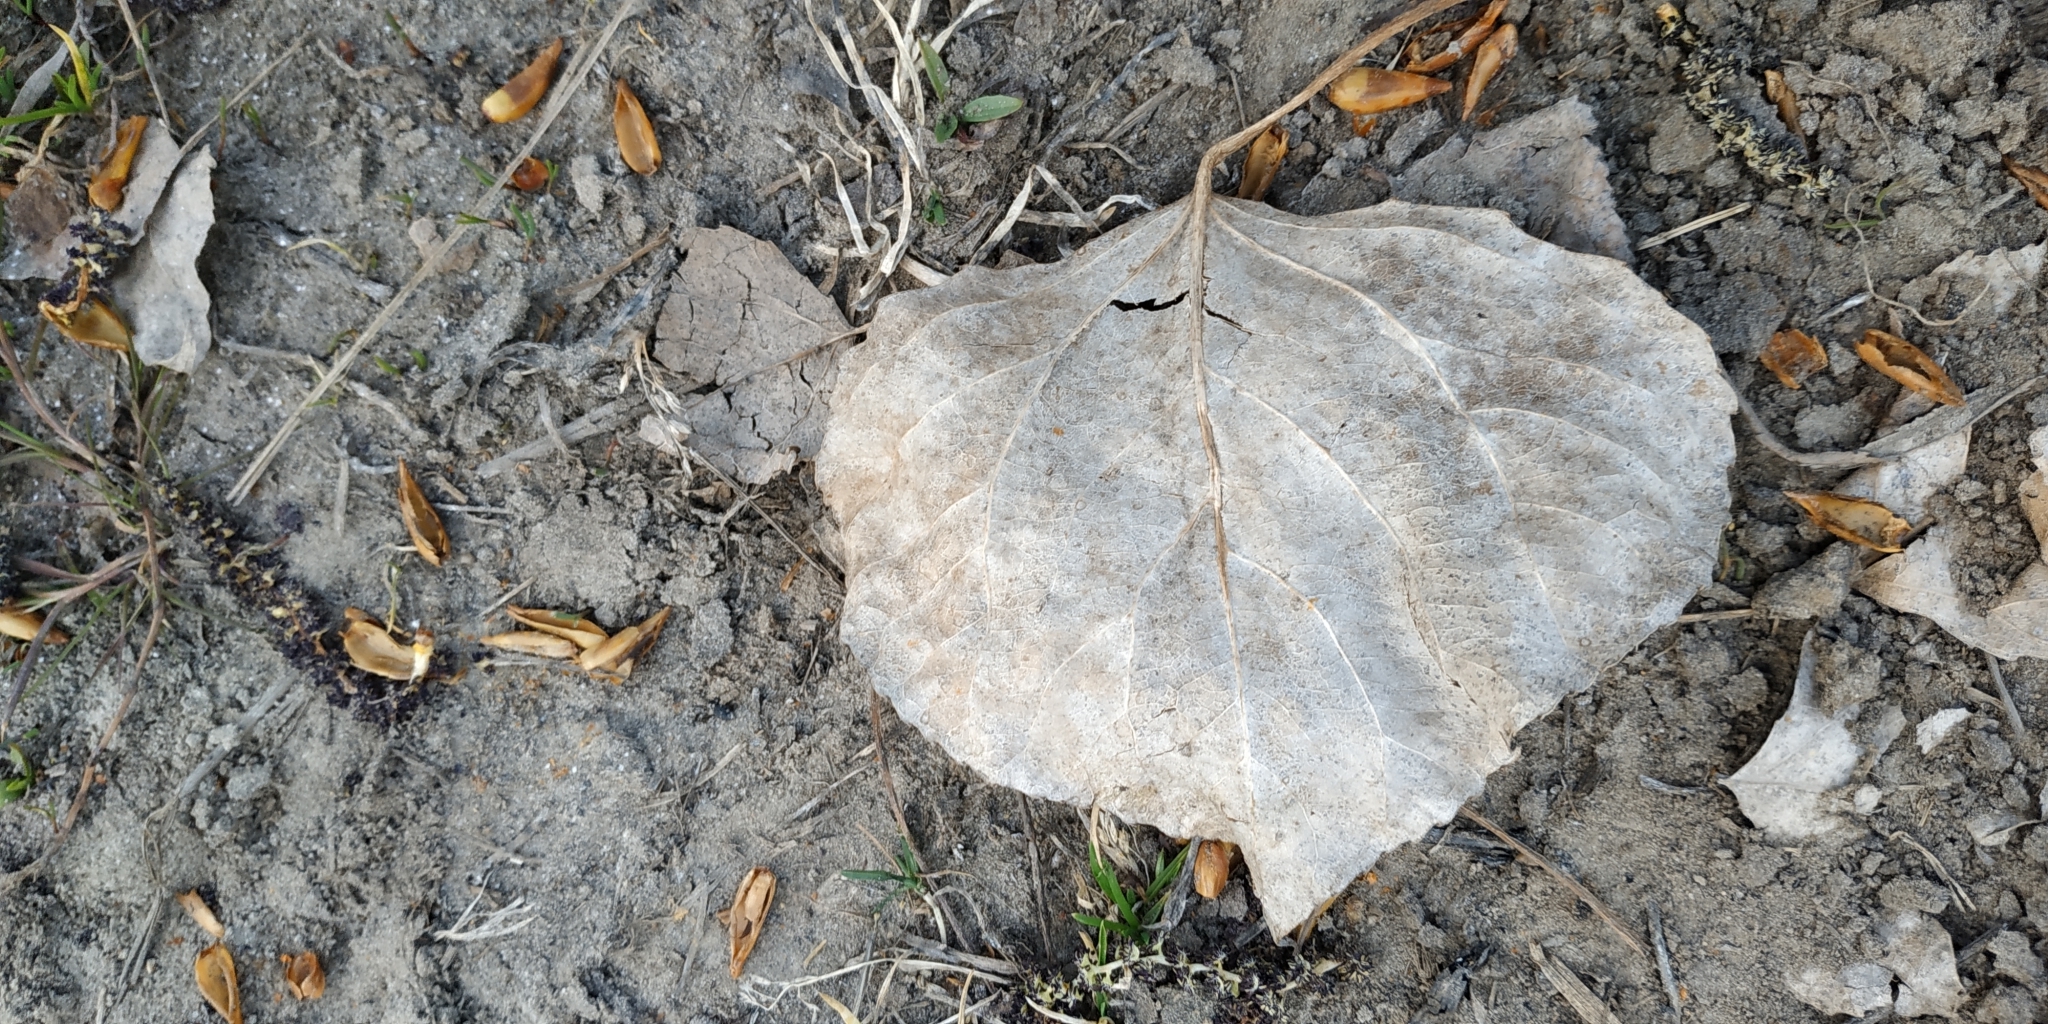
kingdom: Plantae
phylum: Tracheophyta
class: Magnoliopsida
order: Malpighiales
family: Salicaceae
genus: Populus
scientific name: Populus nigra
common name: Black poplar
